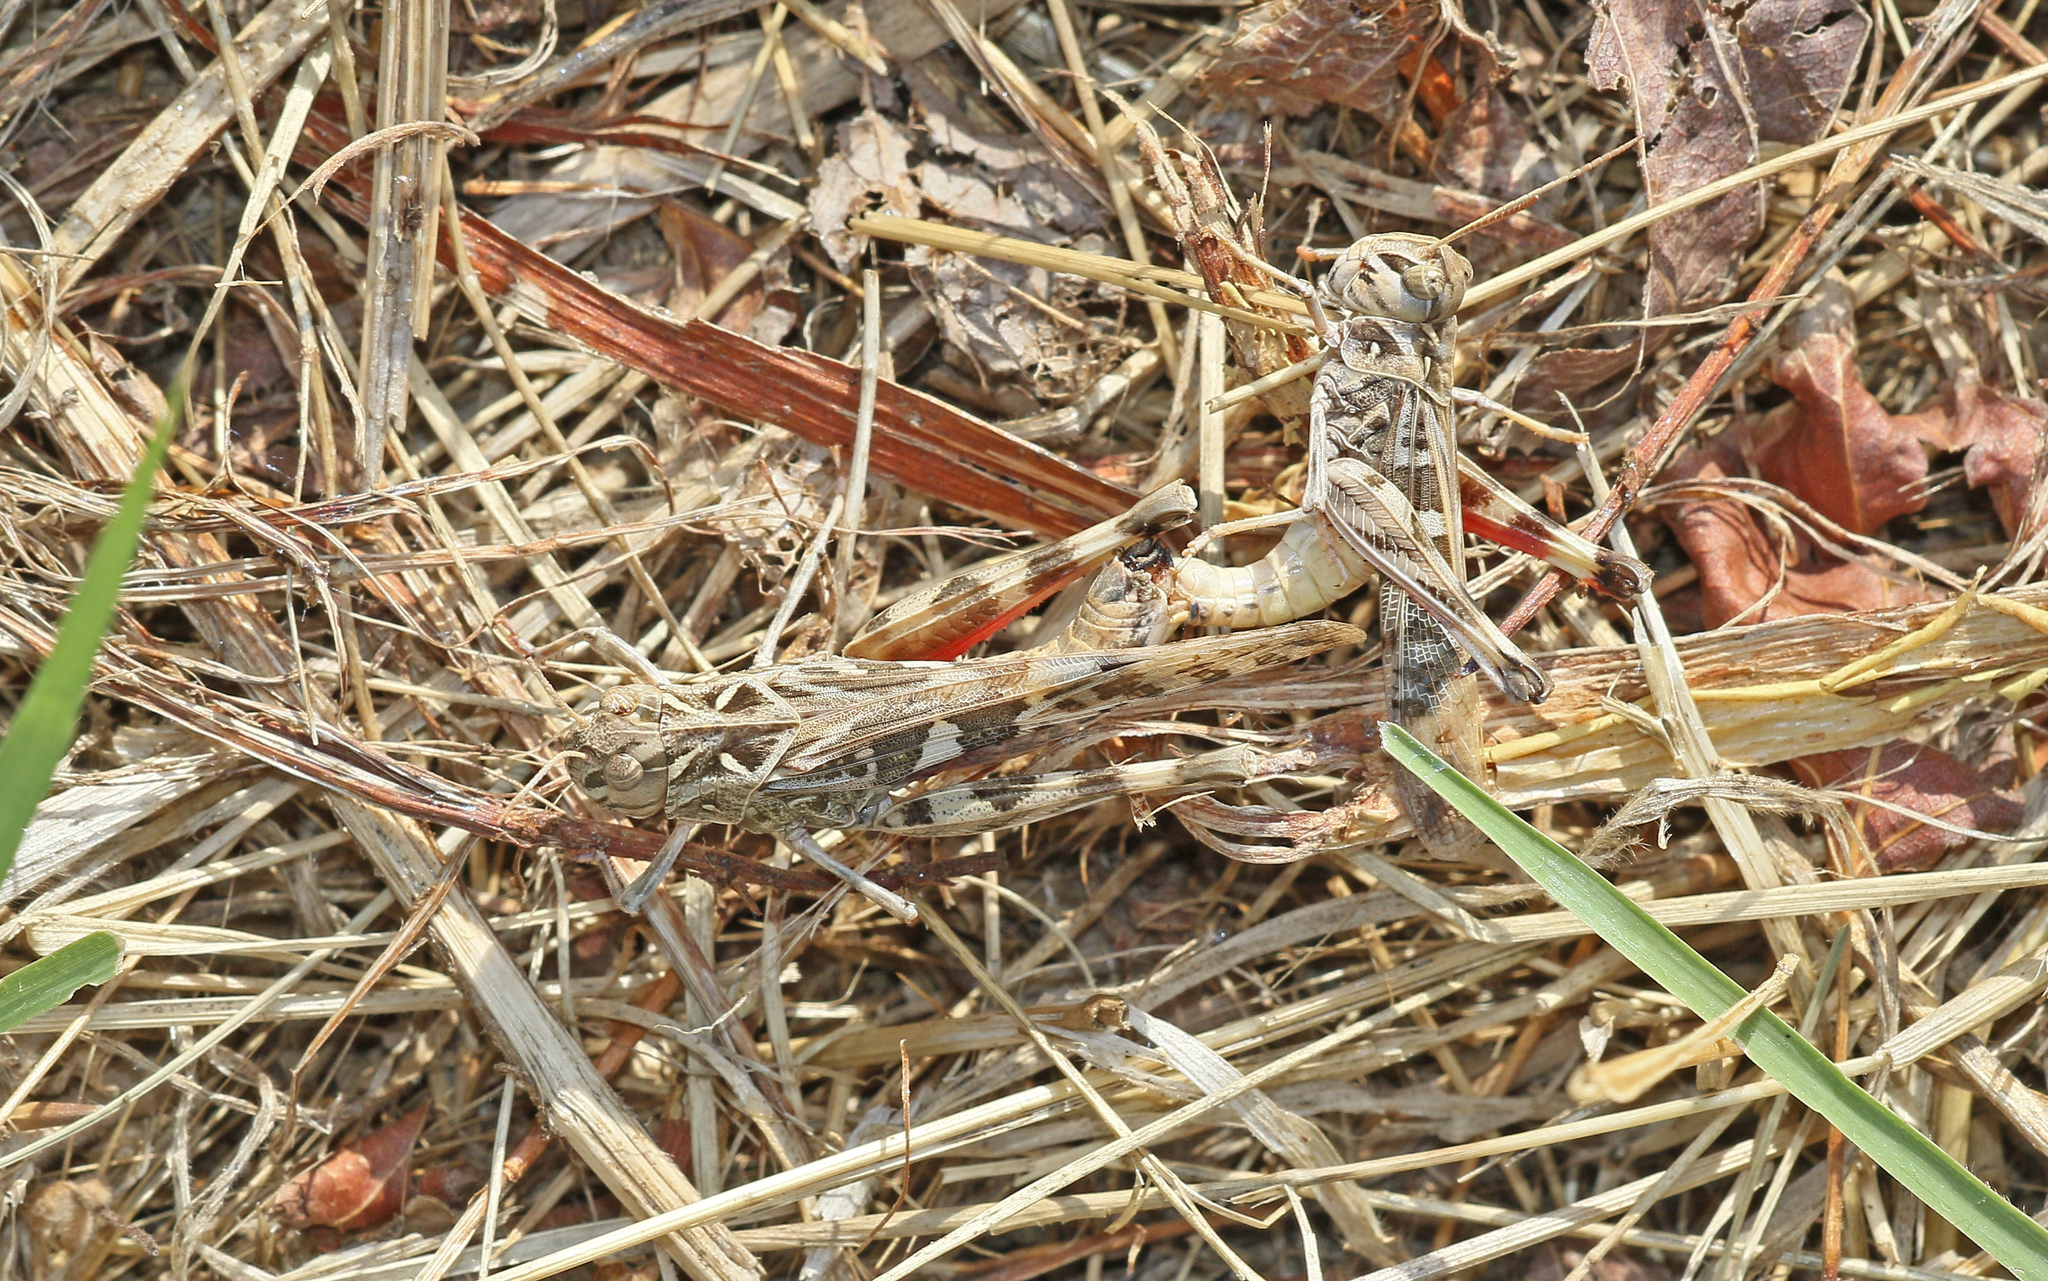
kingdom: Animalia
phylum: Arthropoda
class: Insecta
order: Orthoptera
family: Acrididae
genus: Oedaleus
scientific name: Oedaleus decorus
